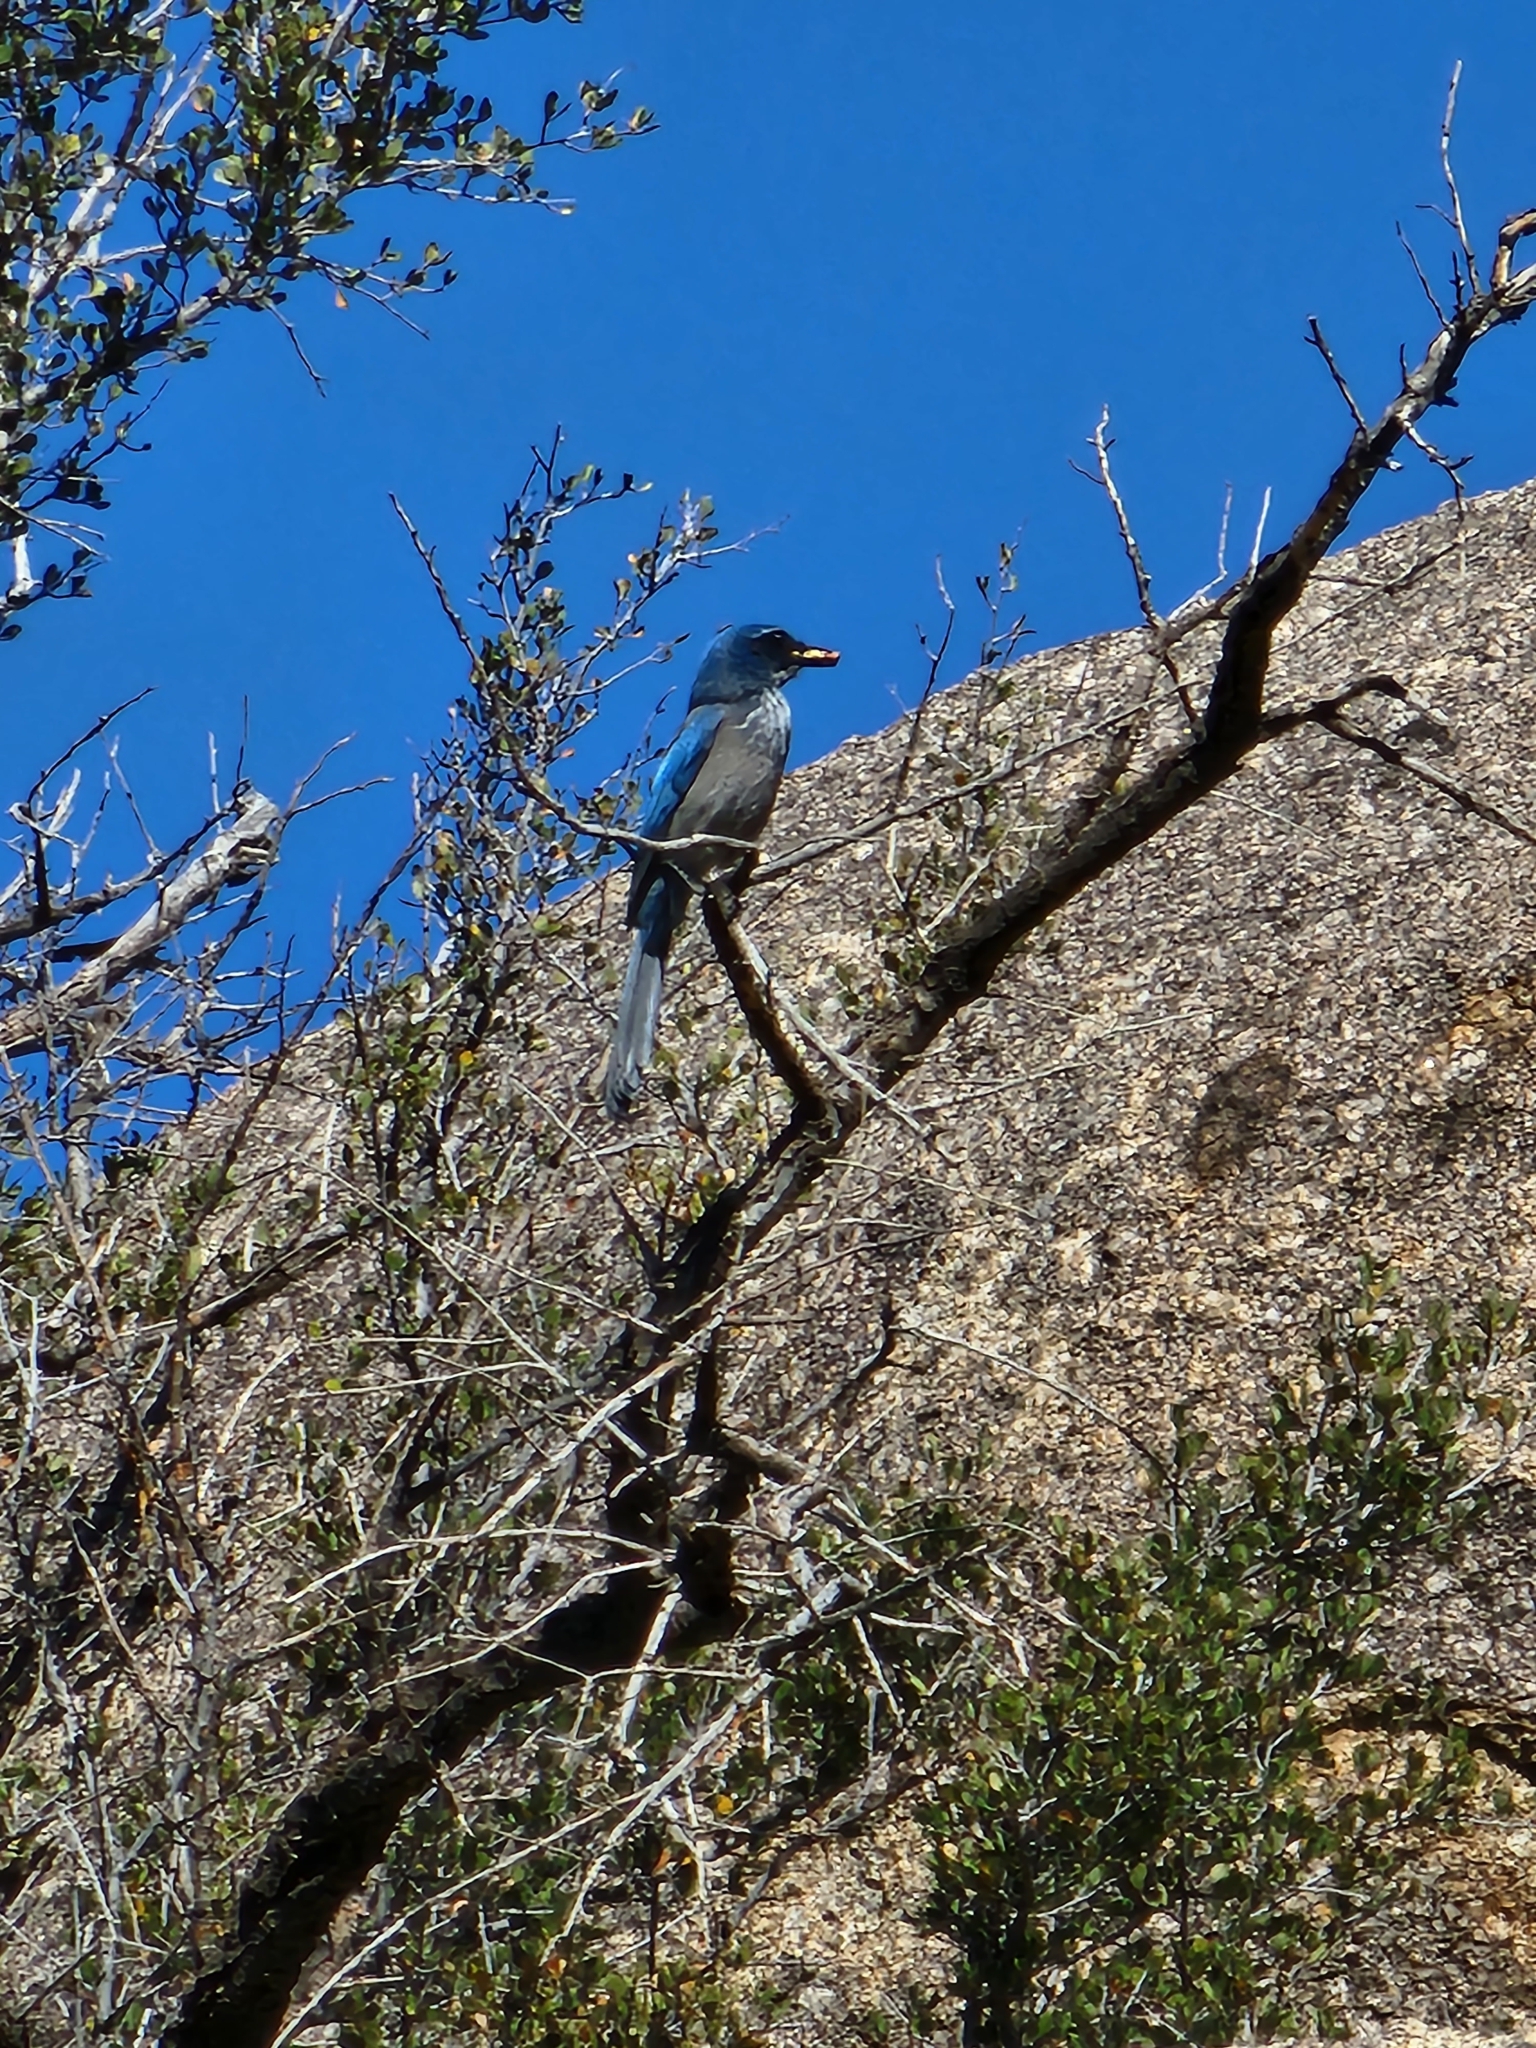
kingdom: Animalia
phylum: Chordata
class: Aves
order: Passeriformes
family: Corvidae
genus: Aphelocoma
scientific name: Aphelocoma woodhouseii
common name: Woodhouse's scrub-jay
